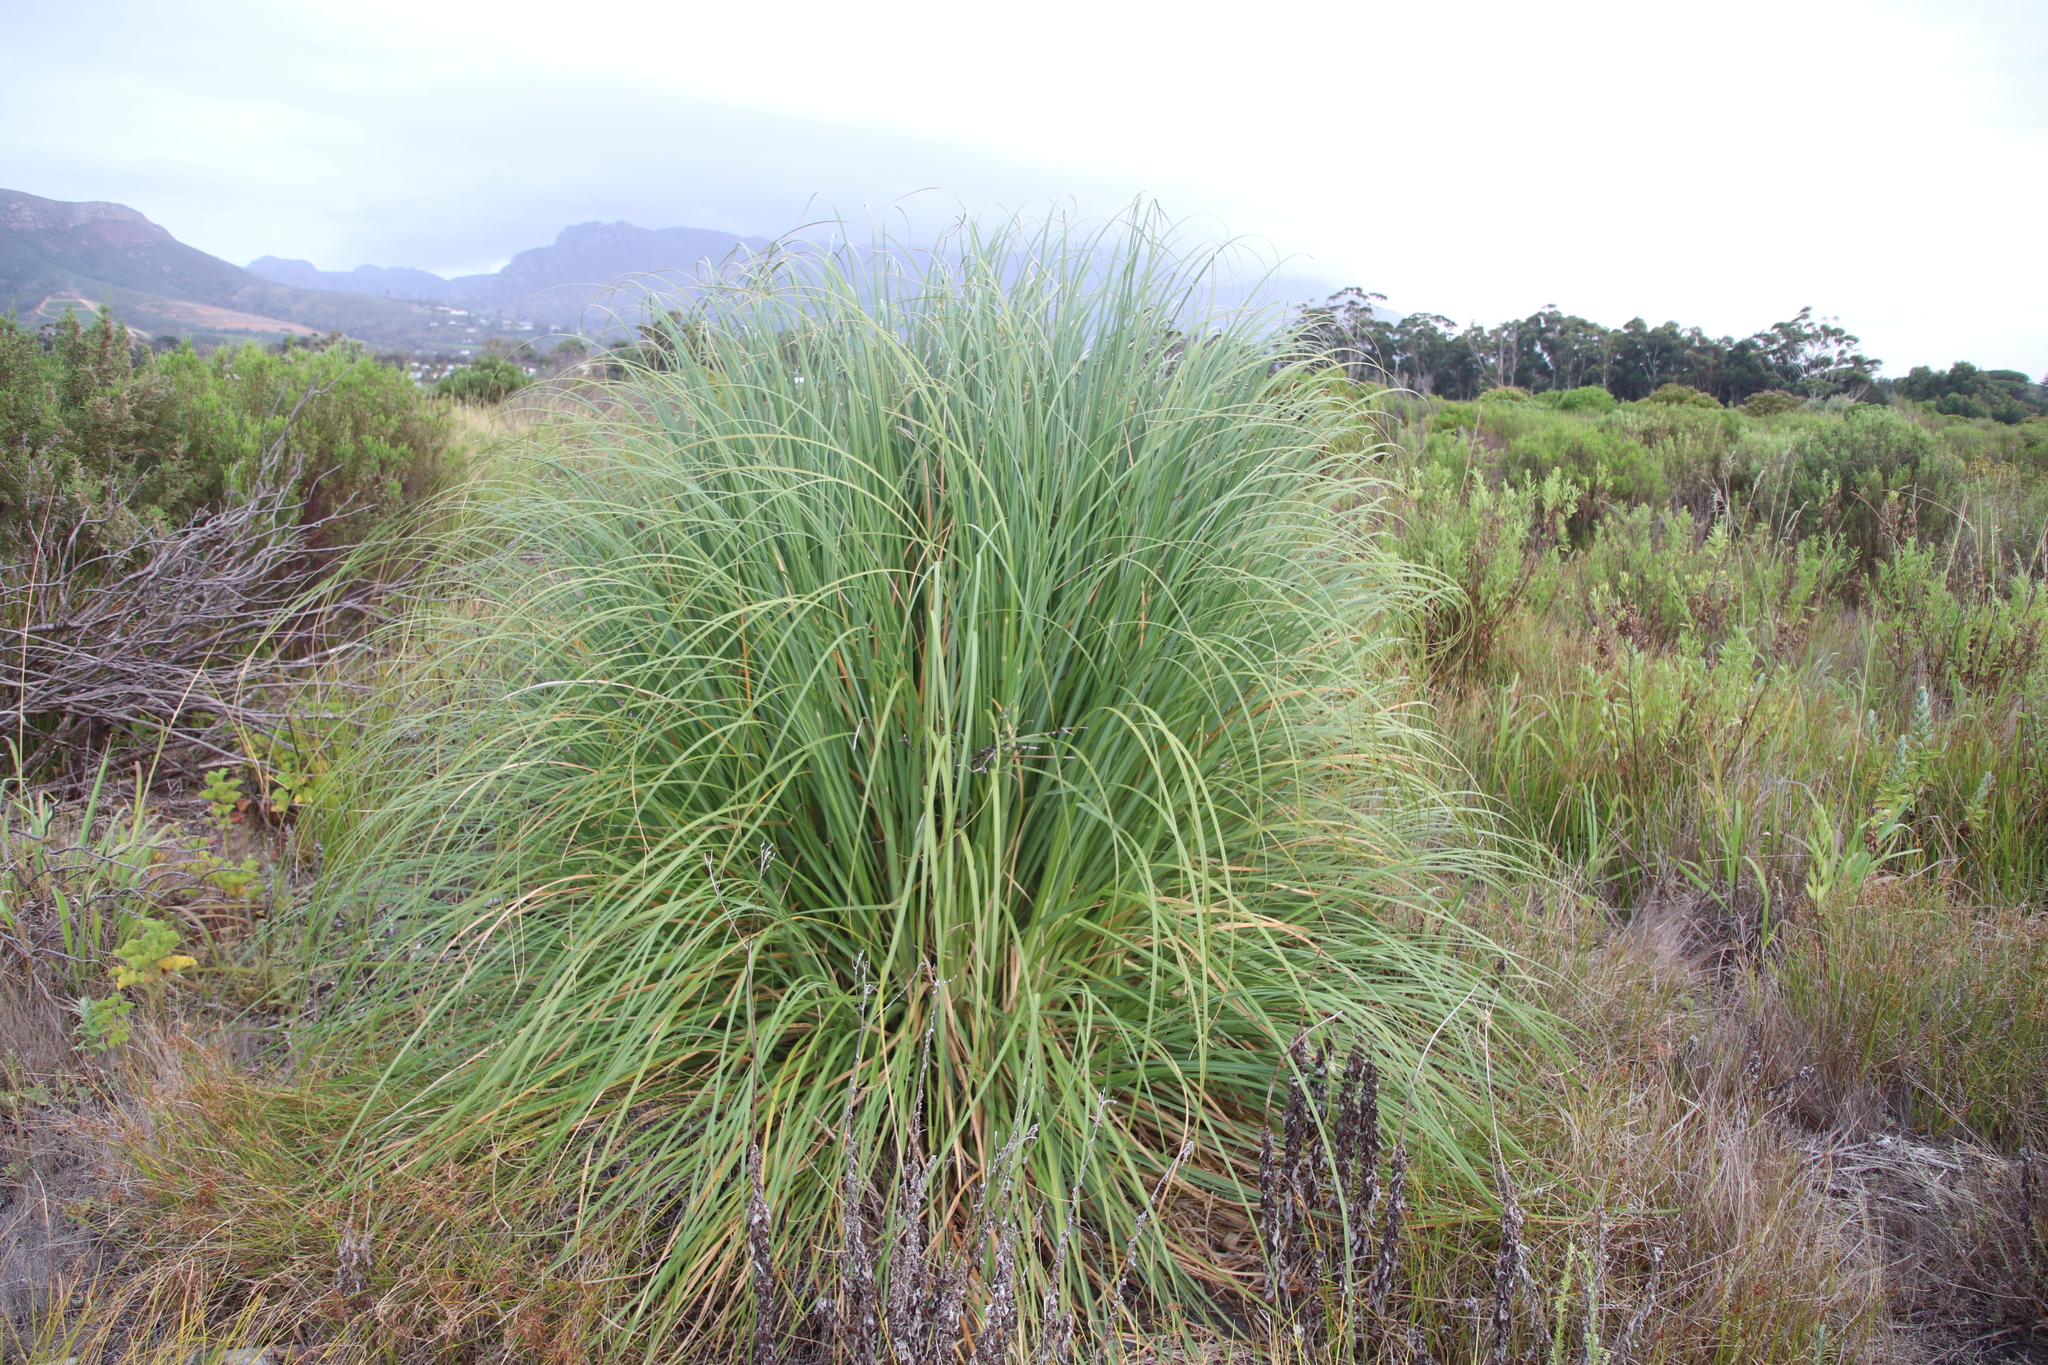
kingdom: Plantae
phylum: Tracheophyta
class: Liliopsida
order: Poales
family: Poaceae
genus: Cortaderia
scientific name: Cortaderia selloana
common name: Uruguayan pampas grass
